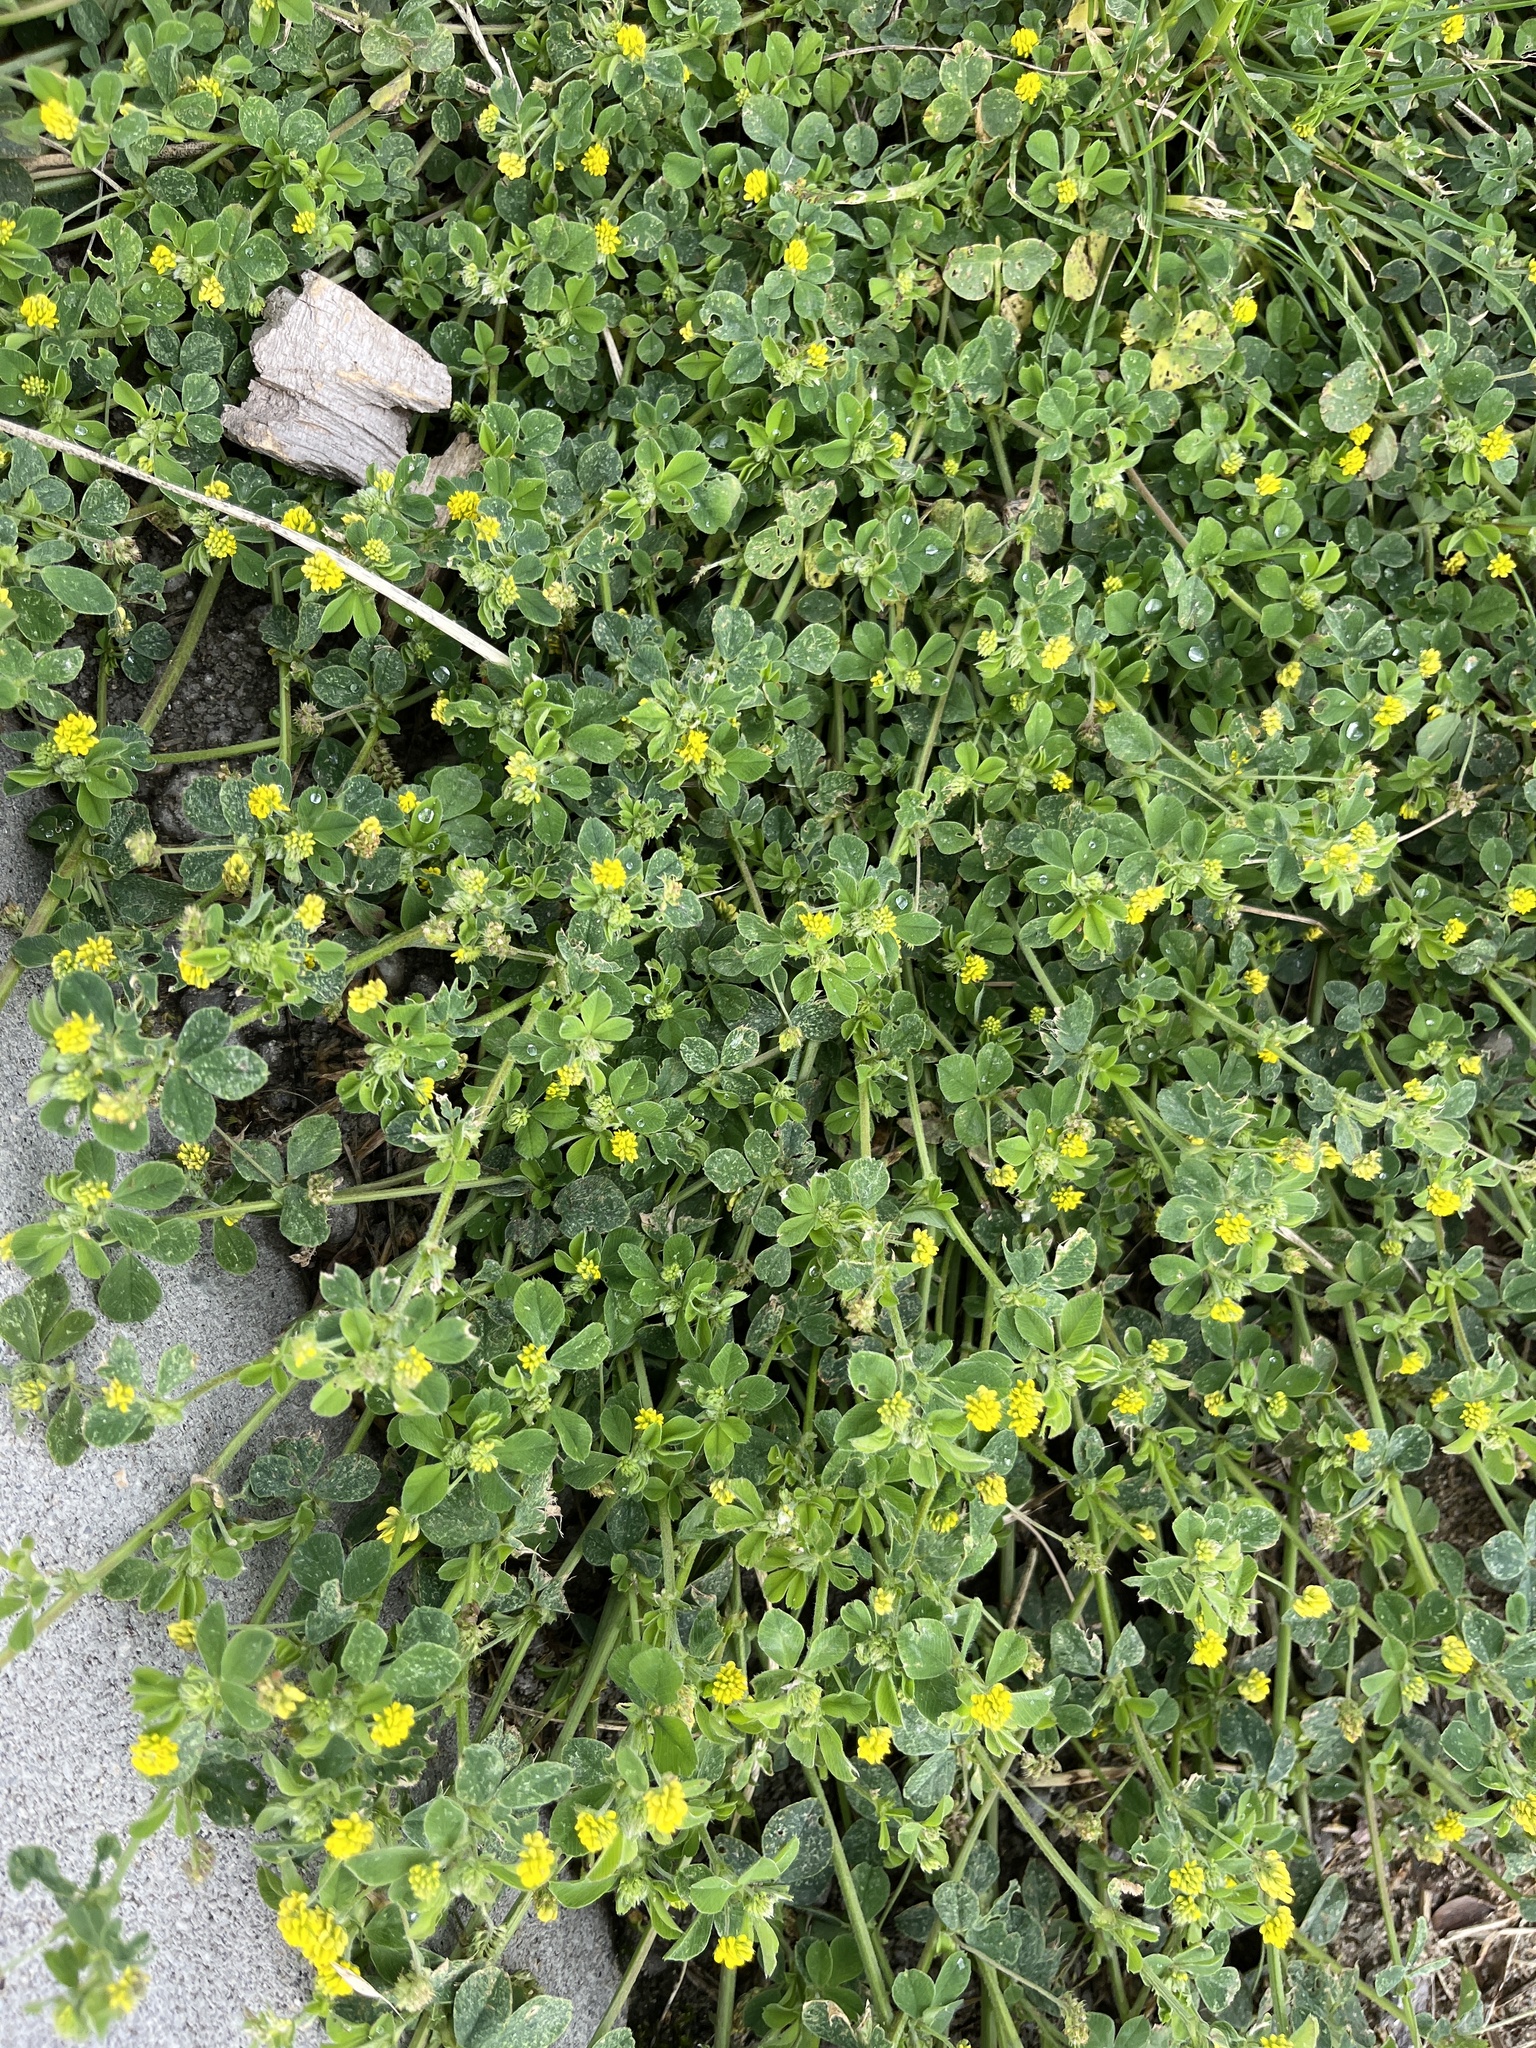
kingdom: Plantae
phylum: Tracheophyta
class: Magnoliopsida
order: Fabales
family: Fabaceae
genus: Medicago
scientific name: Medicago lupulina
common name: Black medick
